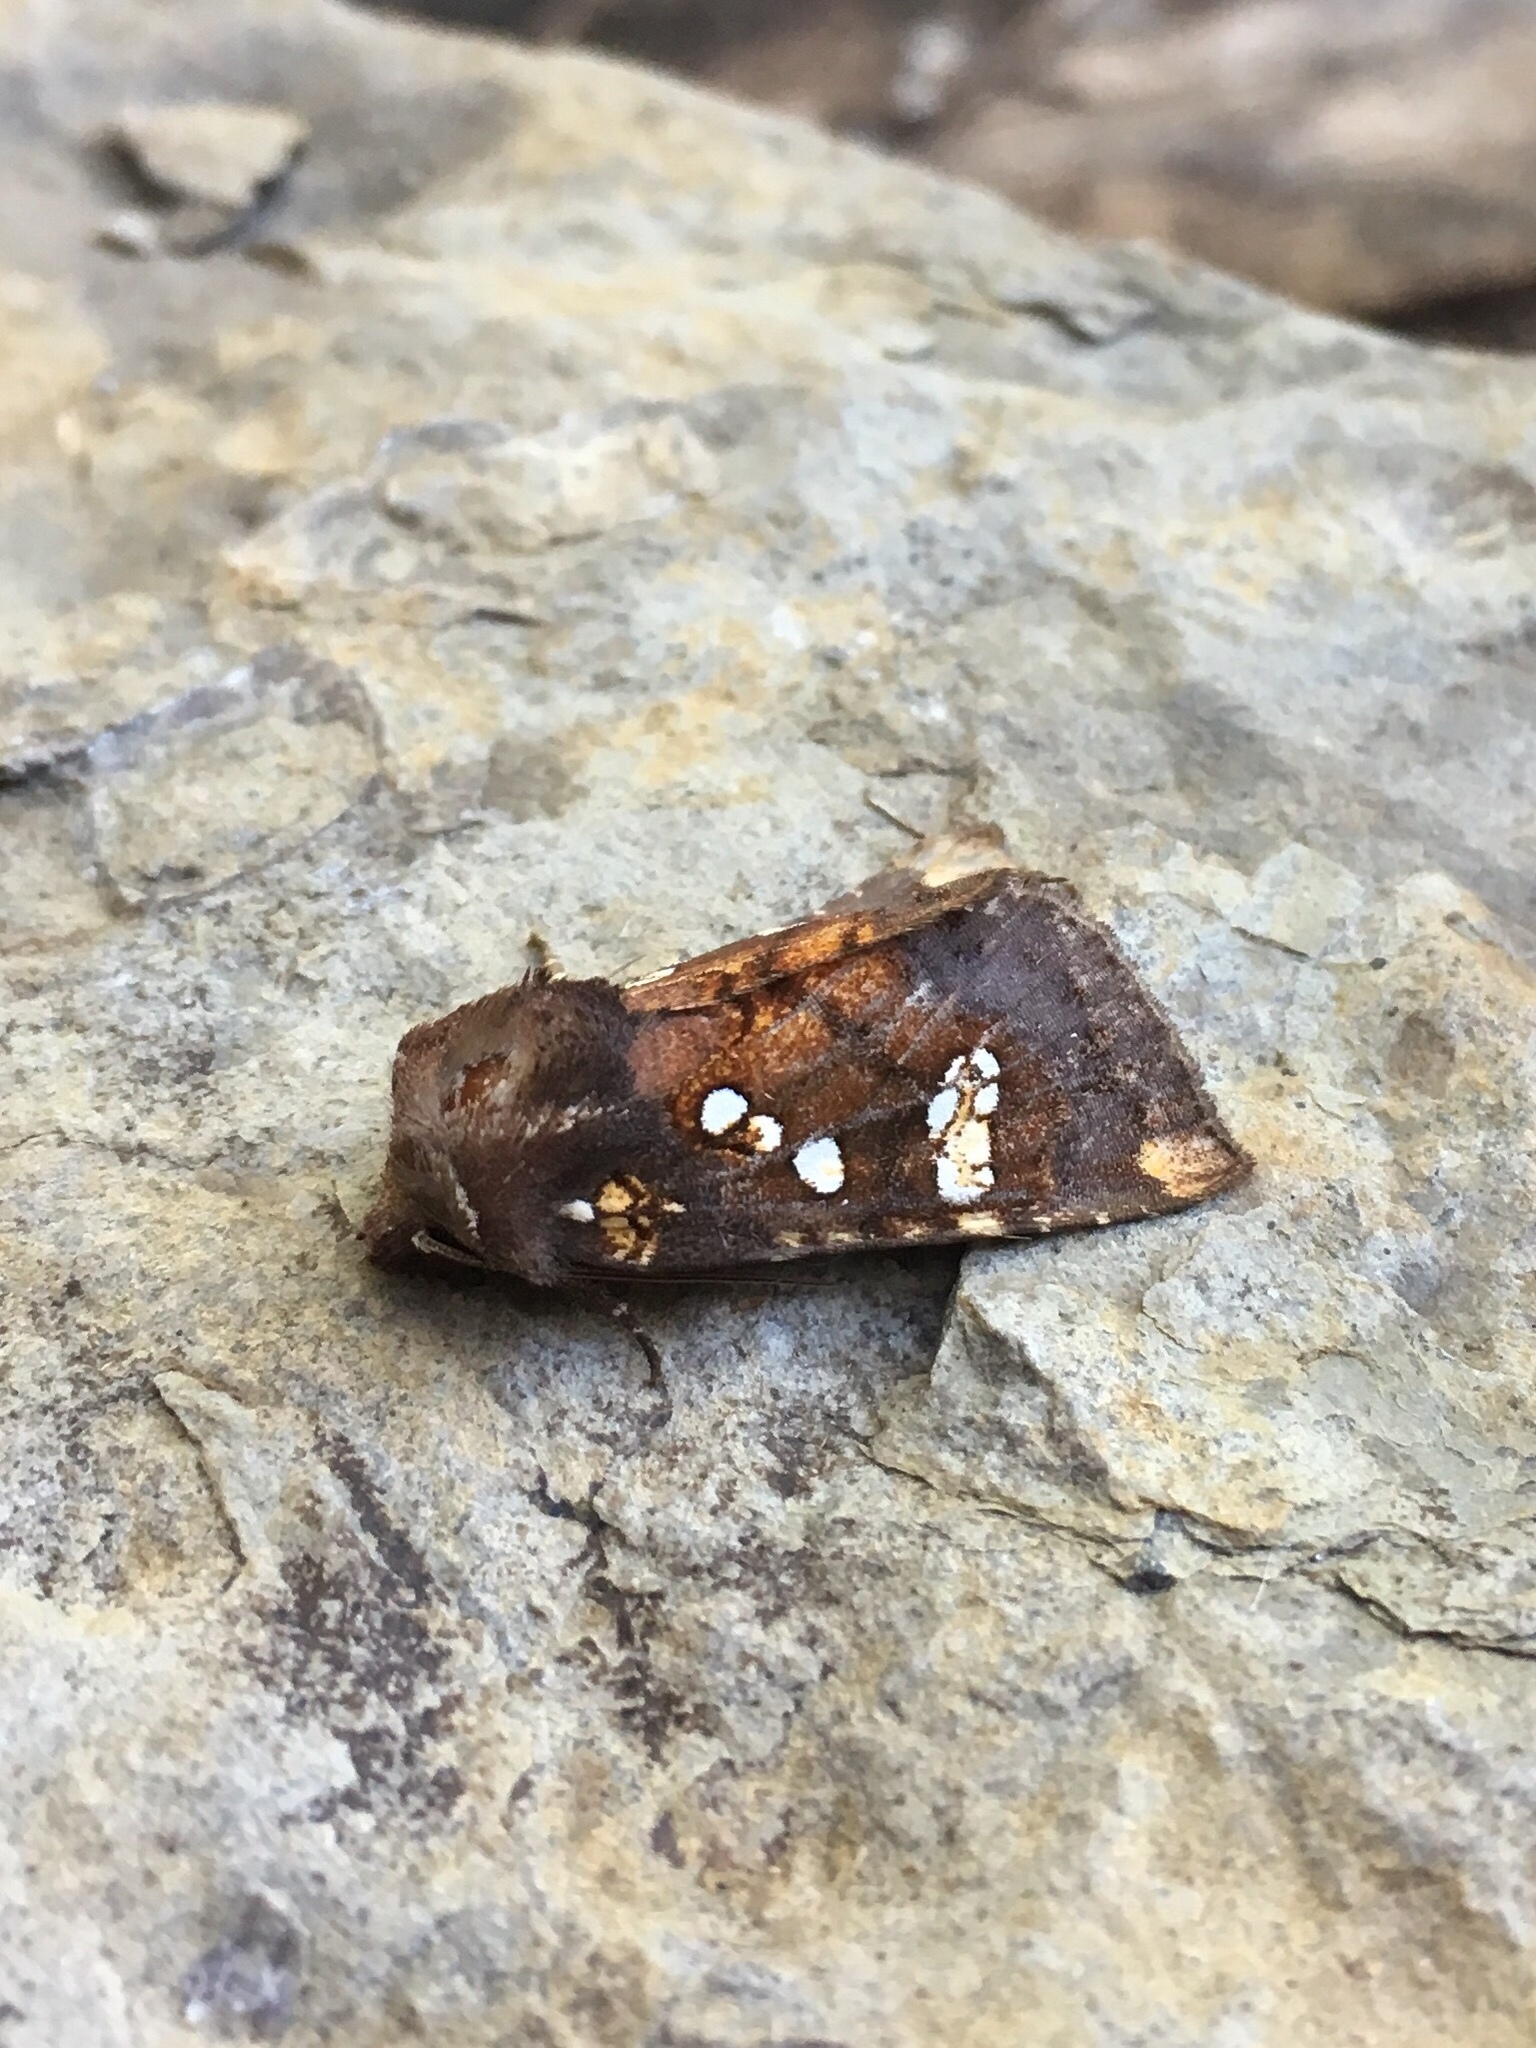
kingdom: Animalia
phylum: Arthropoda
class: Insecta
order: Lepidoptera
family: Noctuidae
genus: Papaipema
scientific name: Papaipema nepheleptena
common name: Turtle head borer moth
